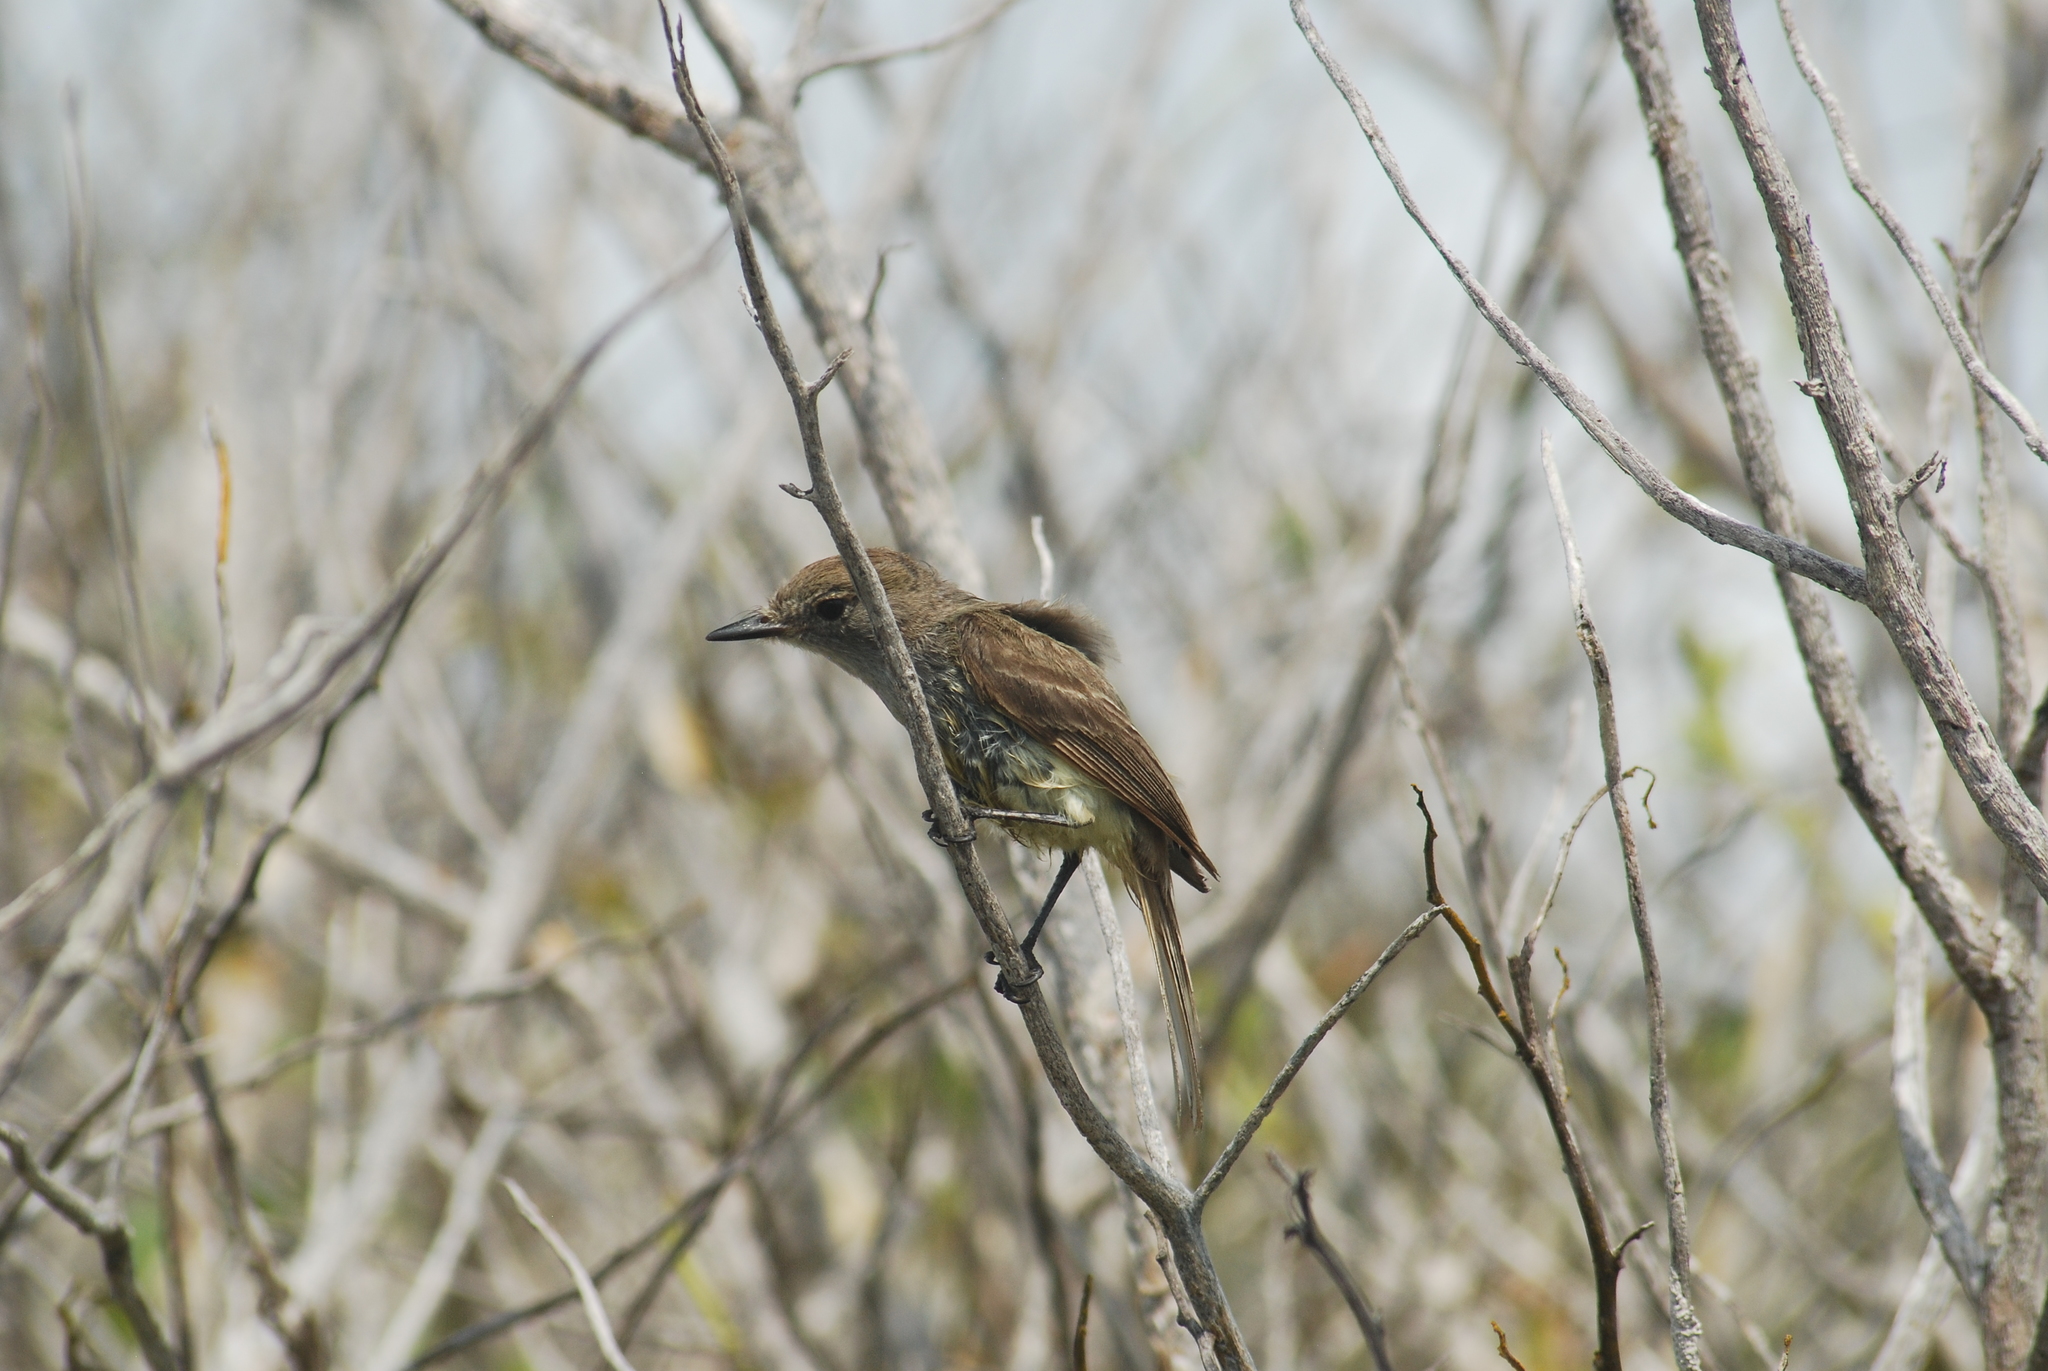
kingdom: Animalia
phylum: Chordata
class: Aves
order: Passeriformes
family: Tyrannidae
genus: Myiarchus
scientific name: Myiarchus magnirostris
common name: Galapagos flycatcher
